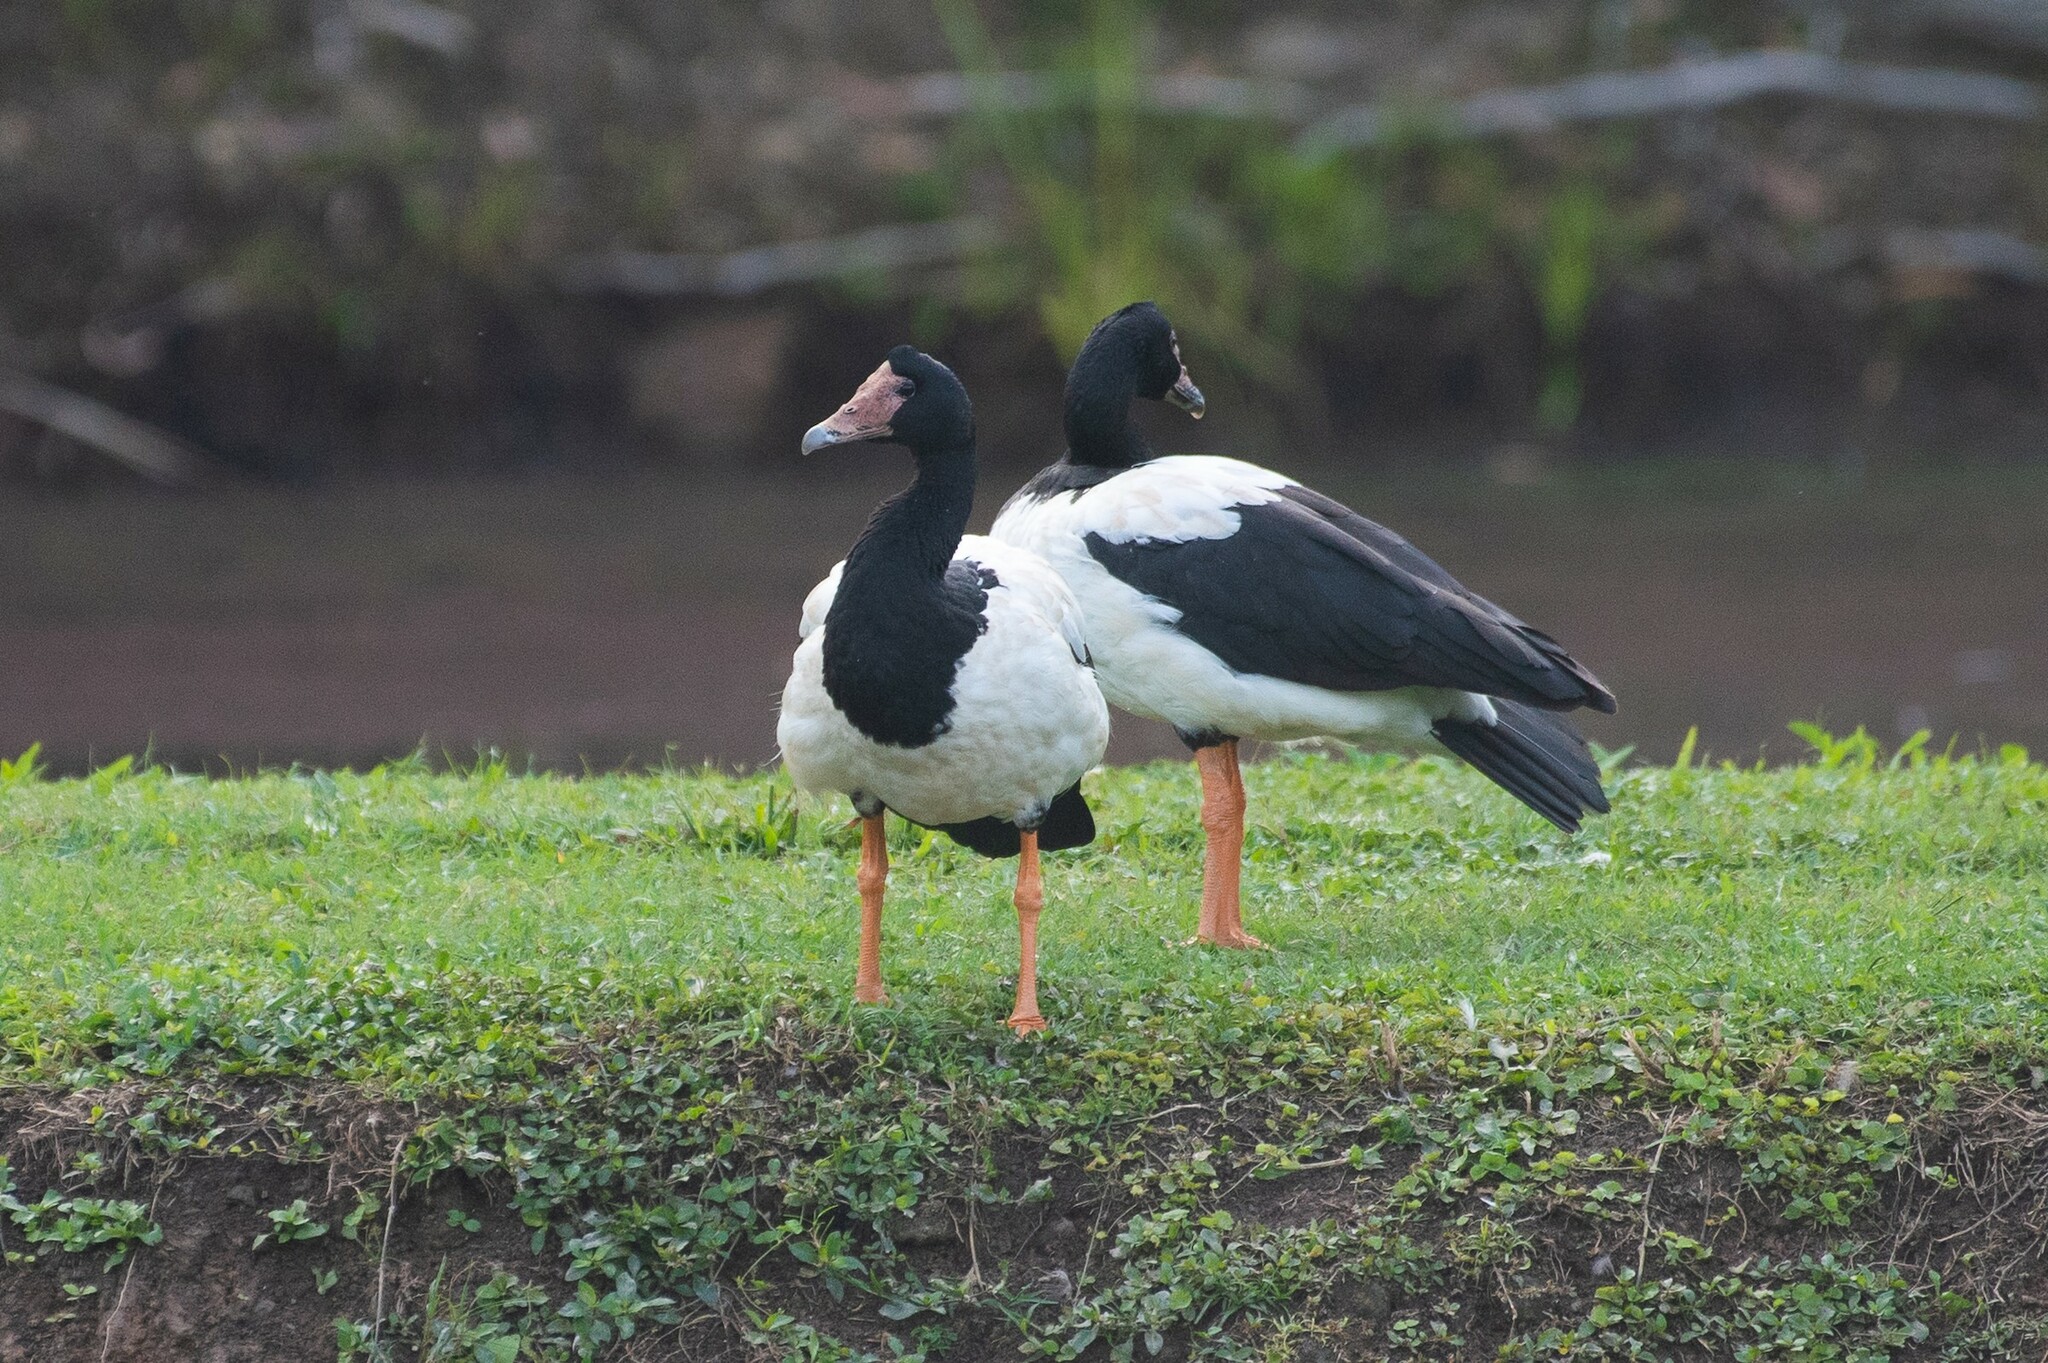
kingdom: Animalia
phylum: Chordata
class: Aves
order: Anseriformes
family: Anseranatidae
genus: Anseranas
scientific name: Anseranas semipalmata
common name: Magpie goose
